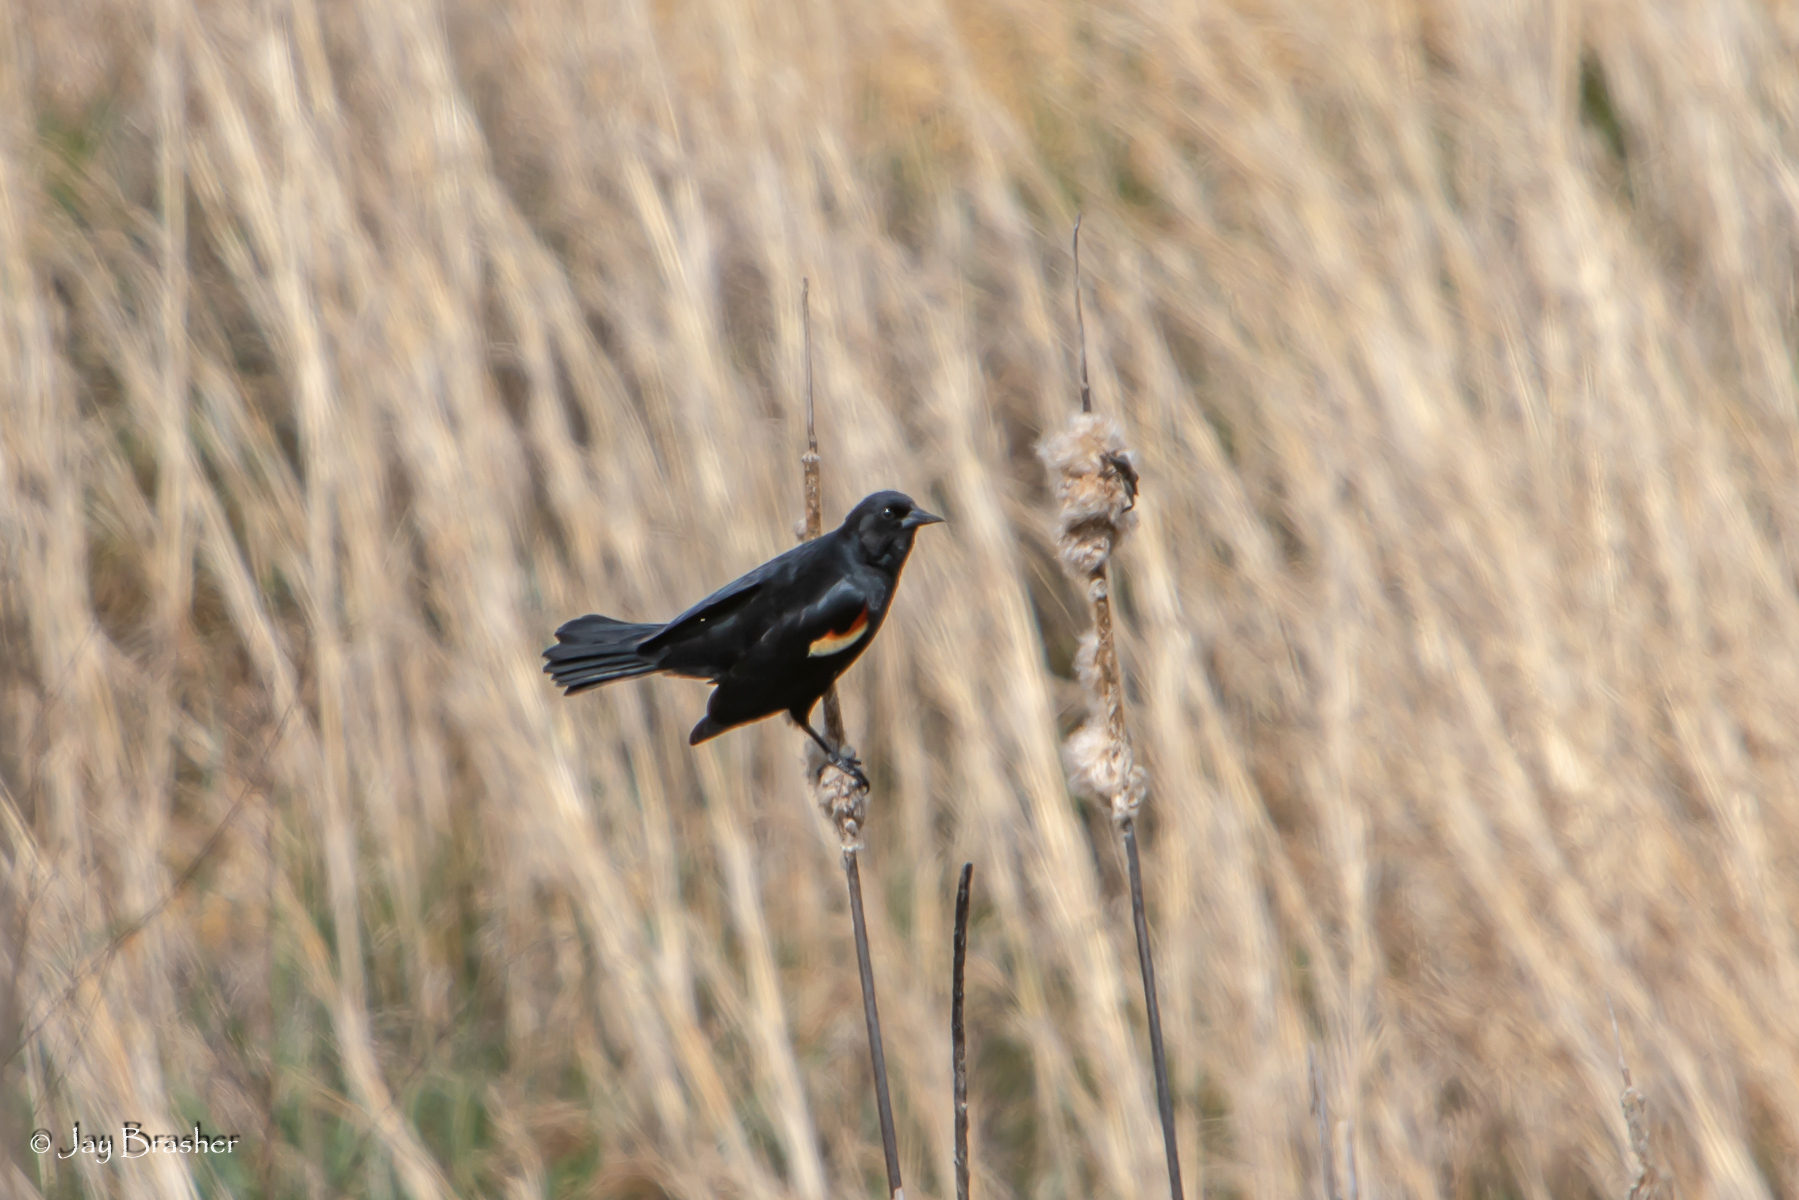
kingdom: Animalia
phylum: Chordata
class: Aves
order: Passeriformes
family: Icteridae
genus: Agelaius
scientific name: Agelaius phoeniceus
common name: Red-winged blackbird
